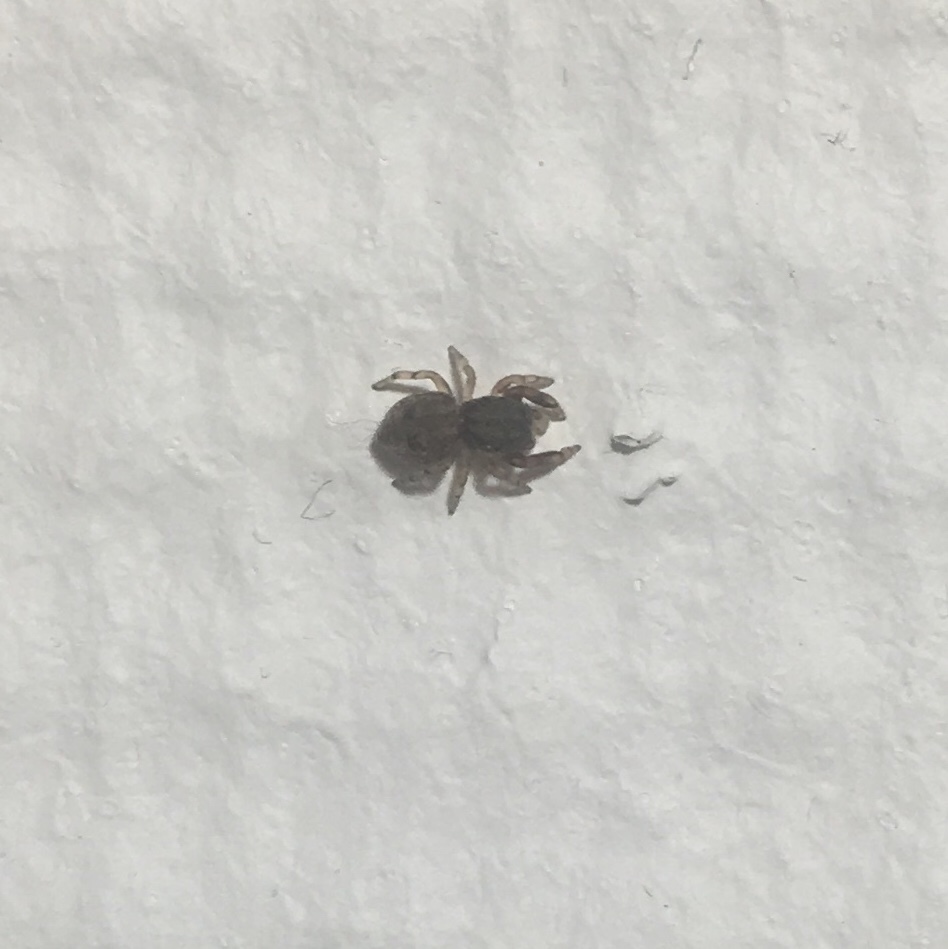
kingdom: Animalia
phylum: Arthropoda
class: Arachnida
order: Araneae
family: Salticidae
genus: Ballus
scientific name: Ballus chalybeius
